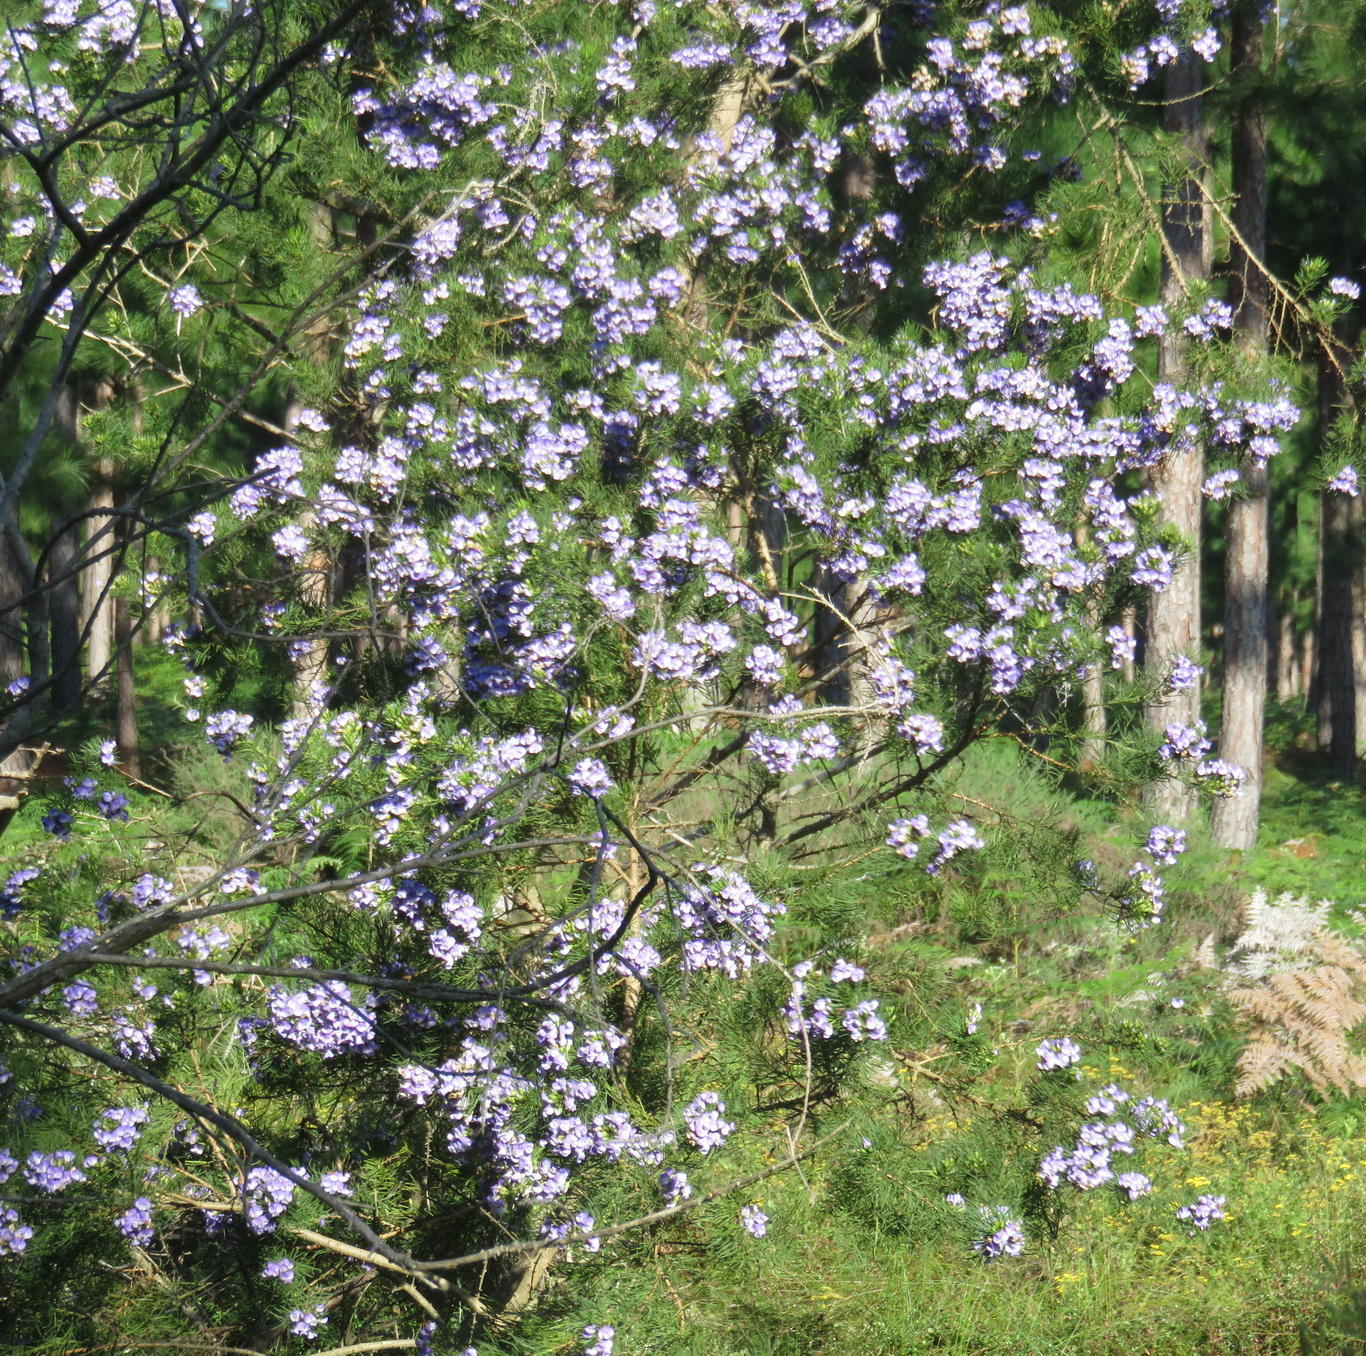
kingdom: Plantae
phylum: Tracheophyta
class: Magnoliopsida
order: Fabales
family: Fabaceae
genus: Psoralea
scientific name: Psoralea affinis
